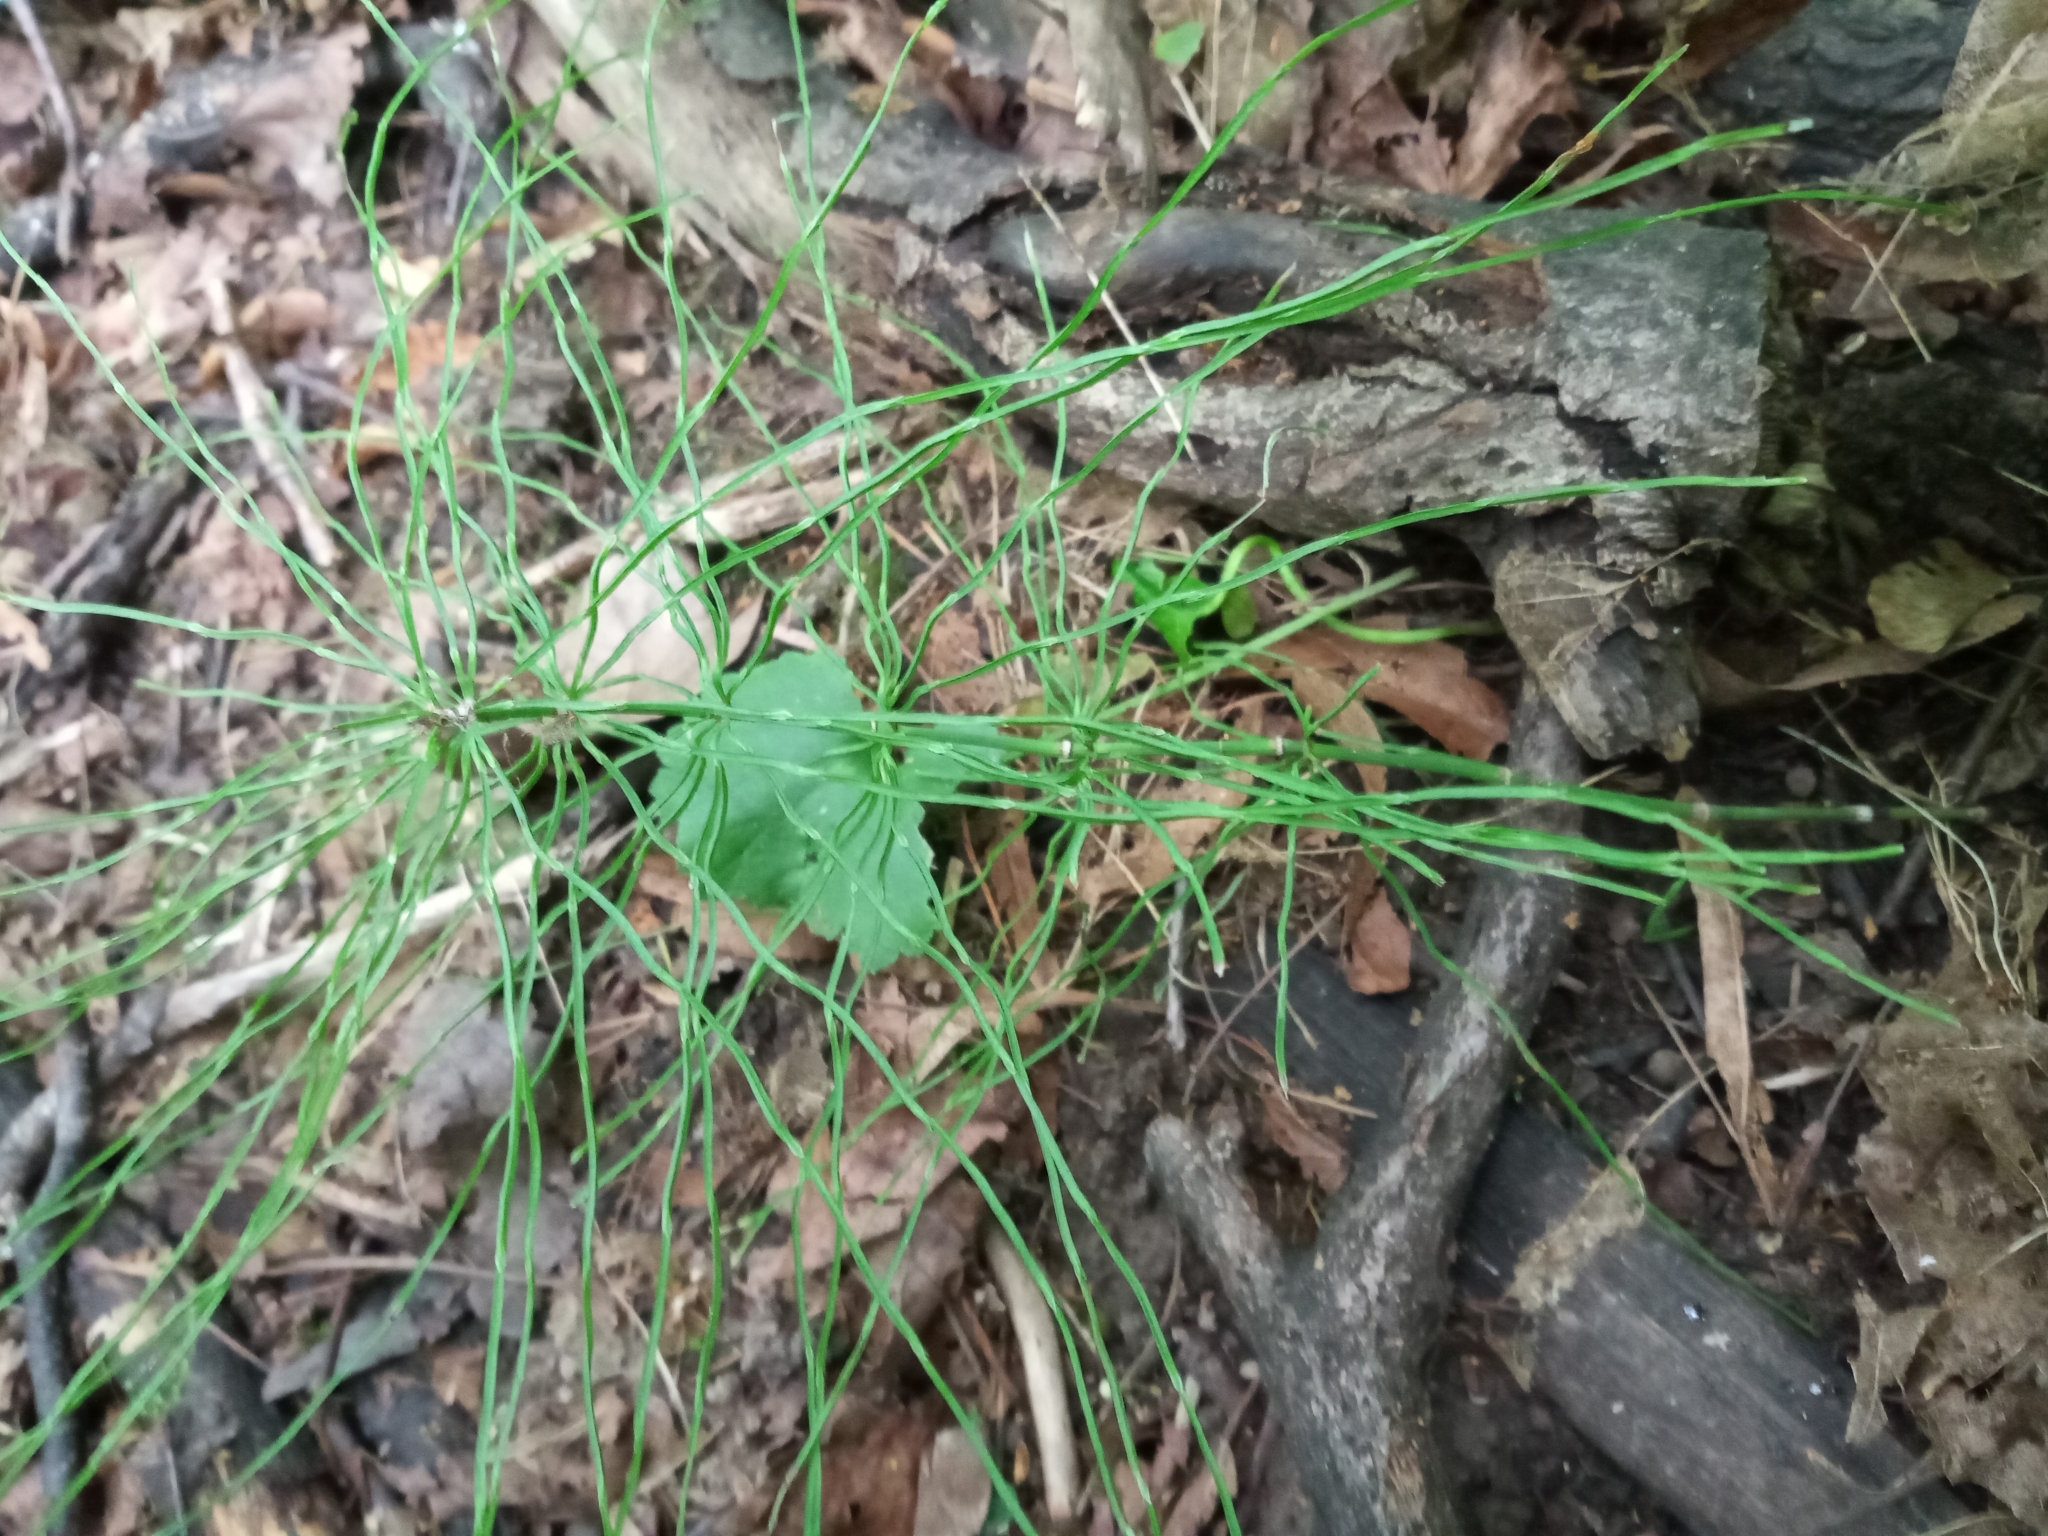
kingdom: Plantae
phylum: Tracheophyta
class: Polypodiopsida
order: Equisetales
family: Equisetaceae
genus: Equisetum
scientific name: Equisetum pratense
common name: Meadow horsetail
